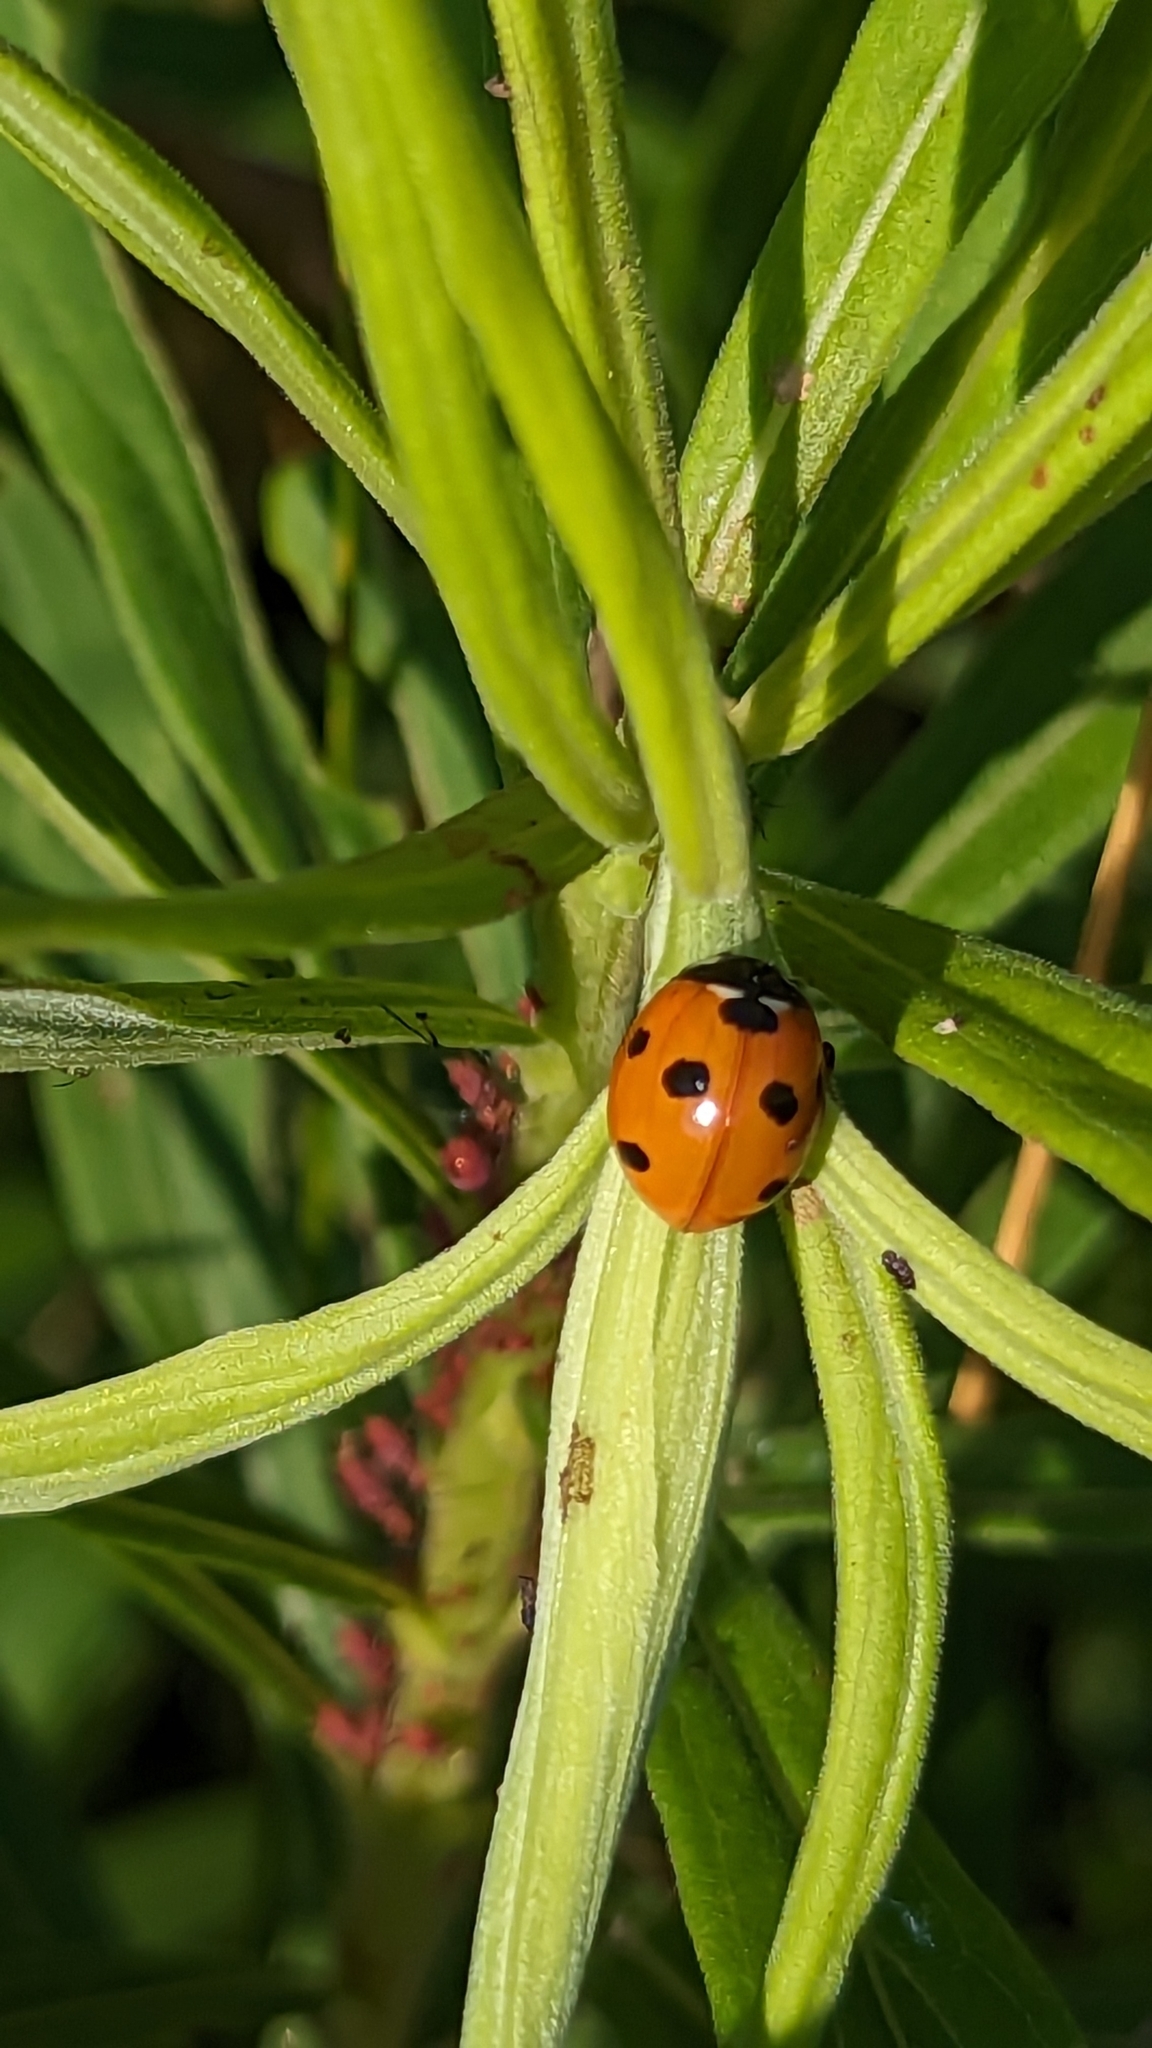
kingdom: Animalia
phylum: Arthropoda
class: Insecta
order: Coleoptera
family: Coccinellidae
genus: Coccinella
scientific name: Coccinella septempunctata
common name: Sevenspotted lady beetle
